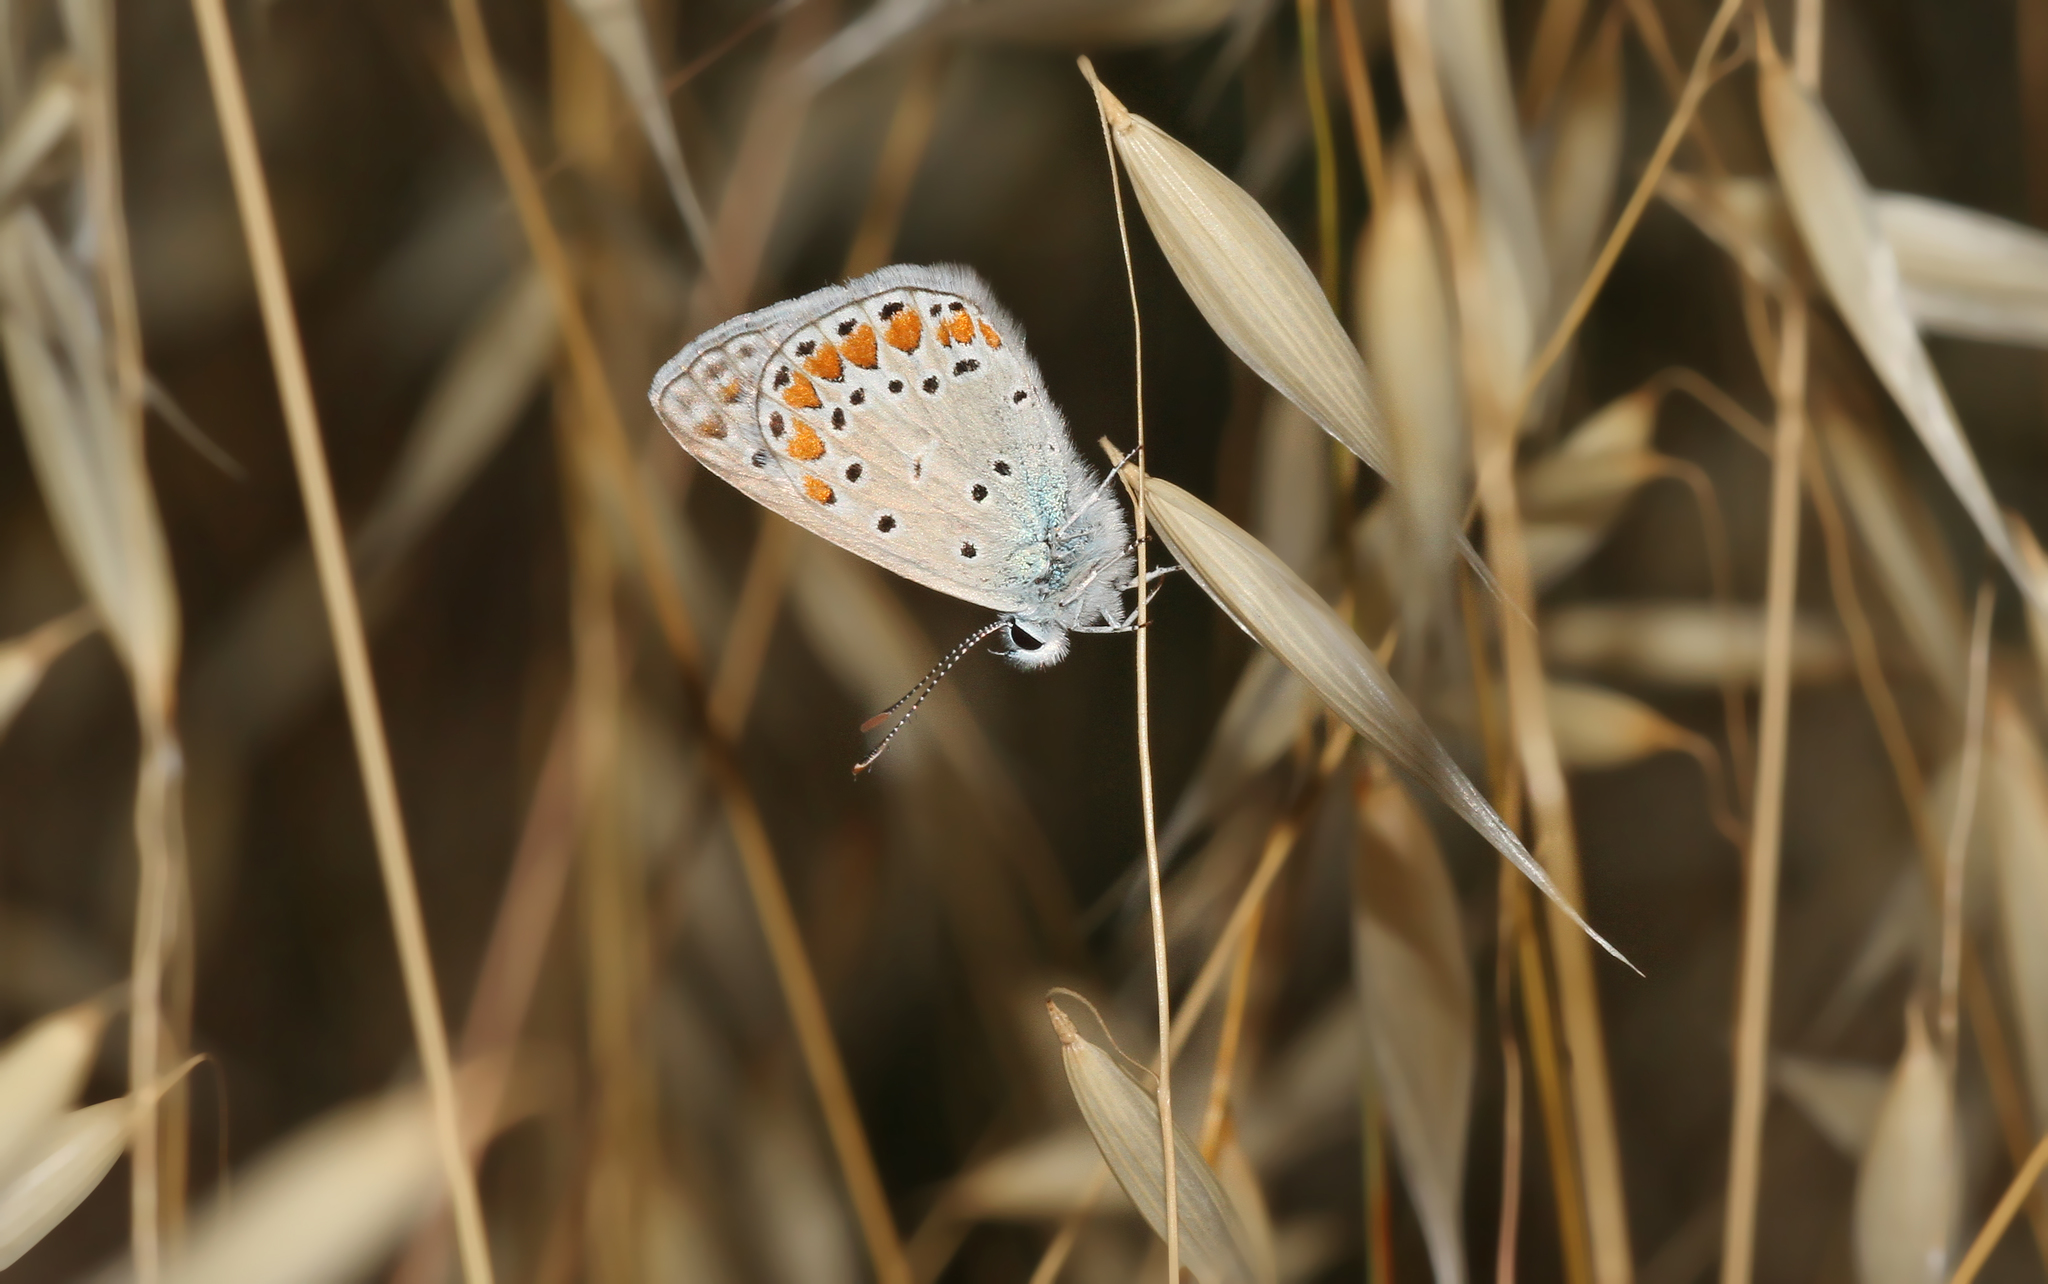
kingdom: Animalia
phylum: Arthropoda
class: Insecta
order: Lepidoptera
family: Lycaenidae
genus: Polyommatus
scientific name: Polyommatus icarus
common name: Common blue
